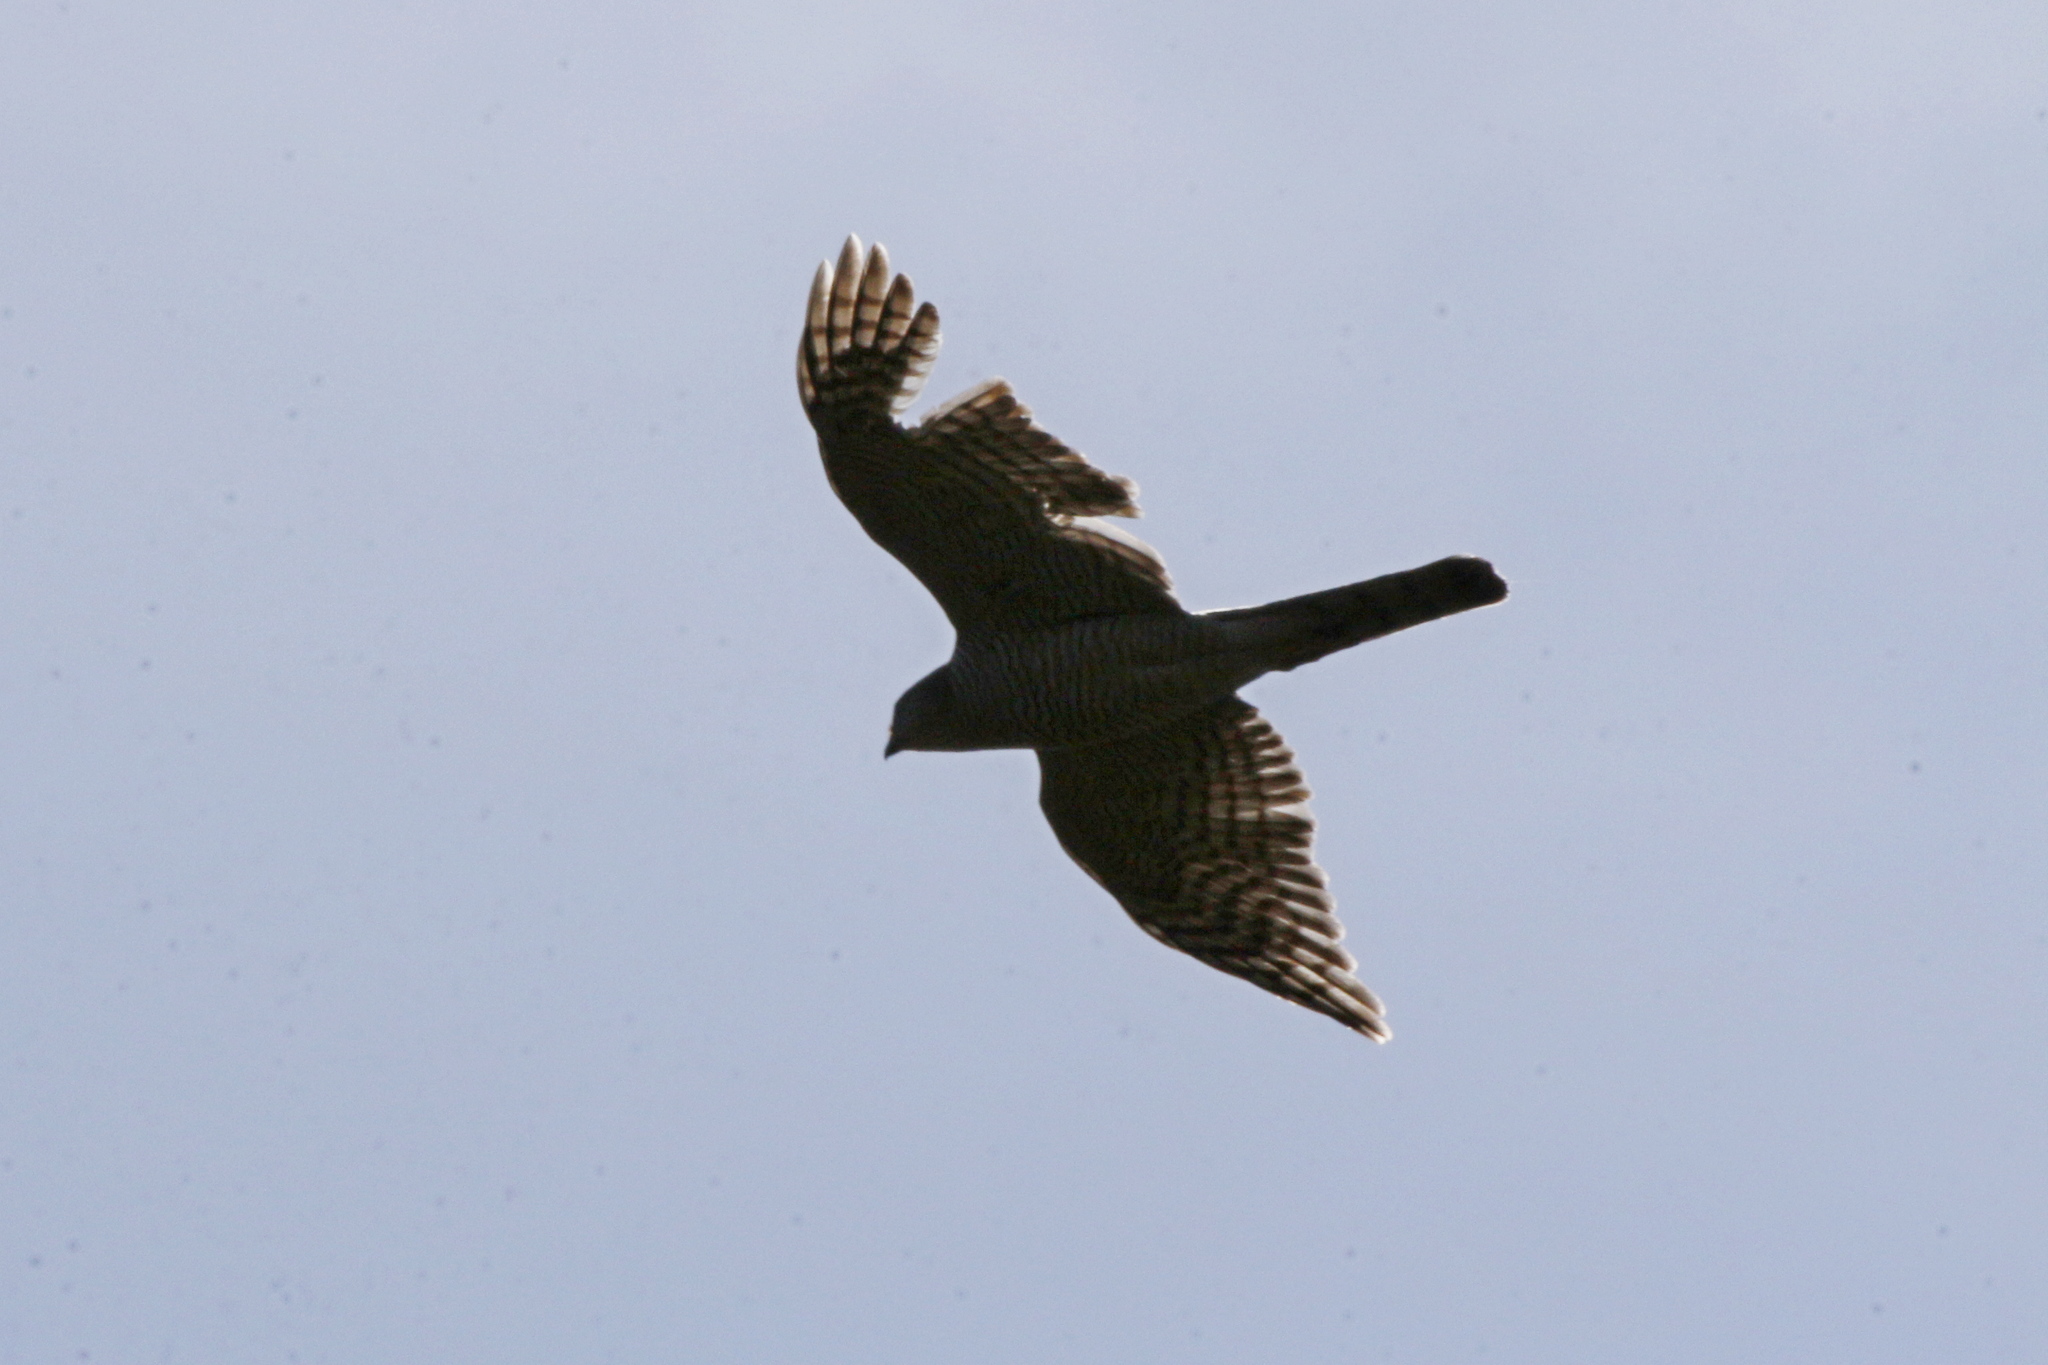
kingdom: Animalia
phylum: Chordata
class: Aves
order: Accipitriformes
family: Accipitridae
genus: Accipiter
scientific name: Accipiter nisus
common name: Eurasian sparrowhawk
